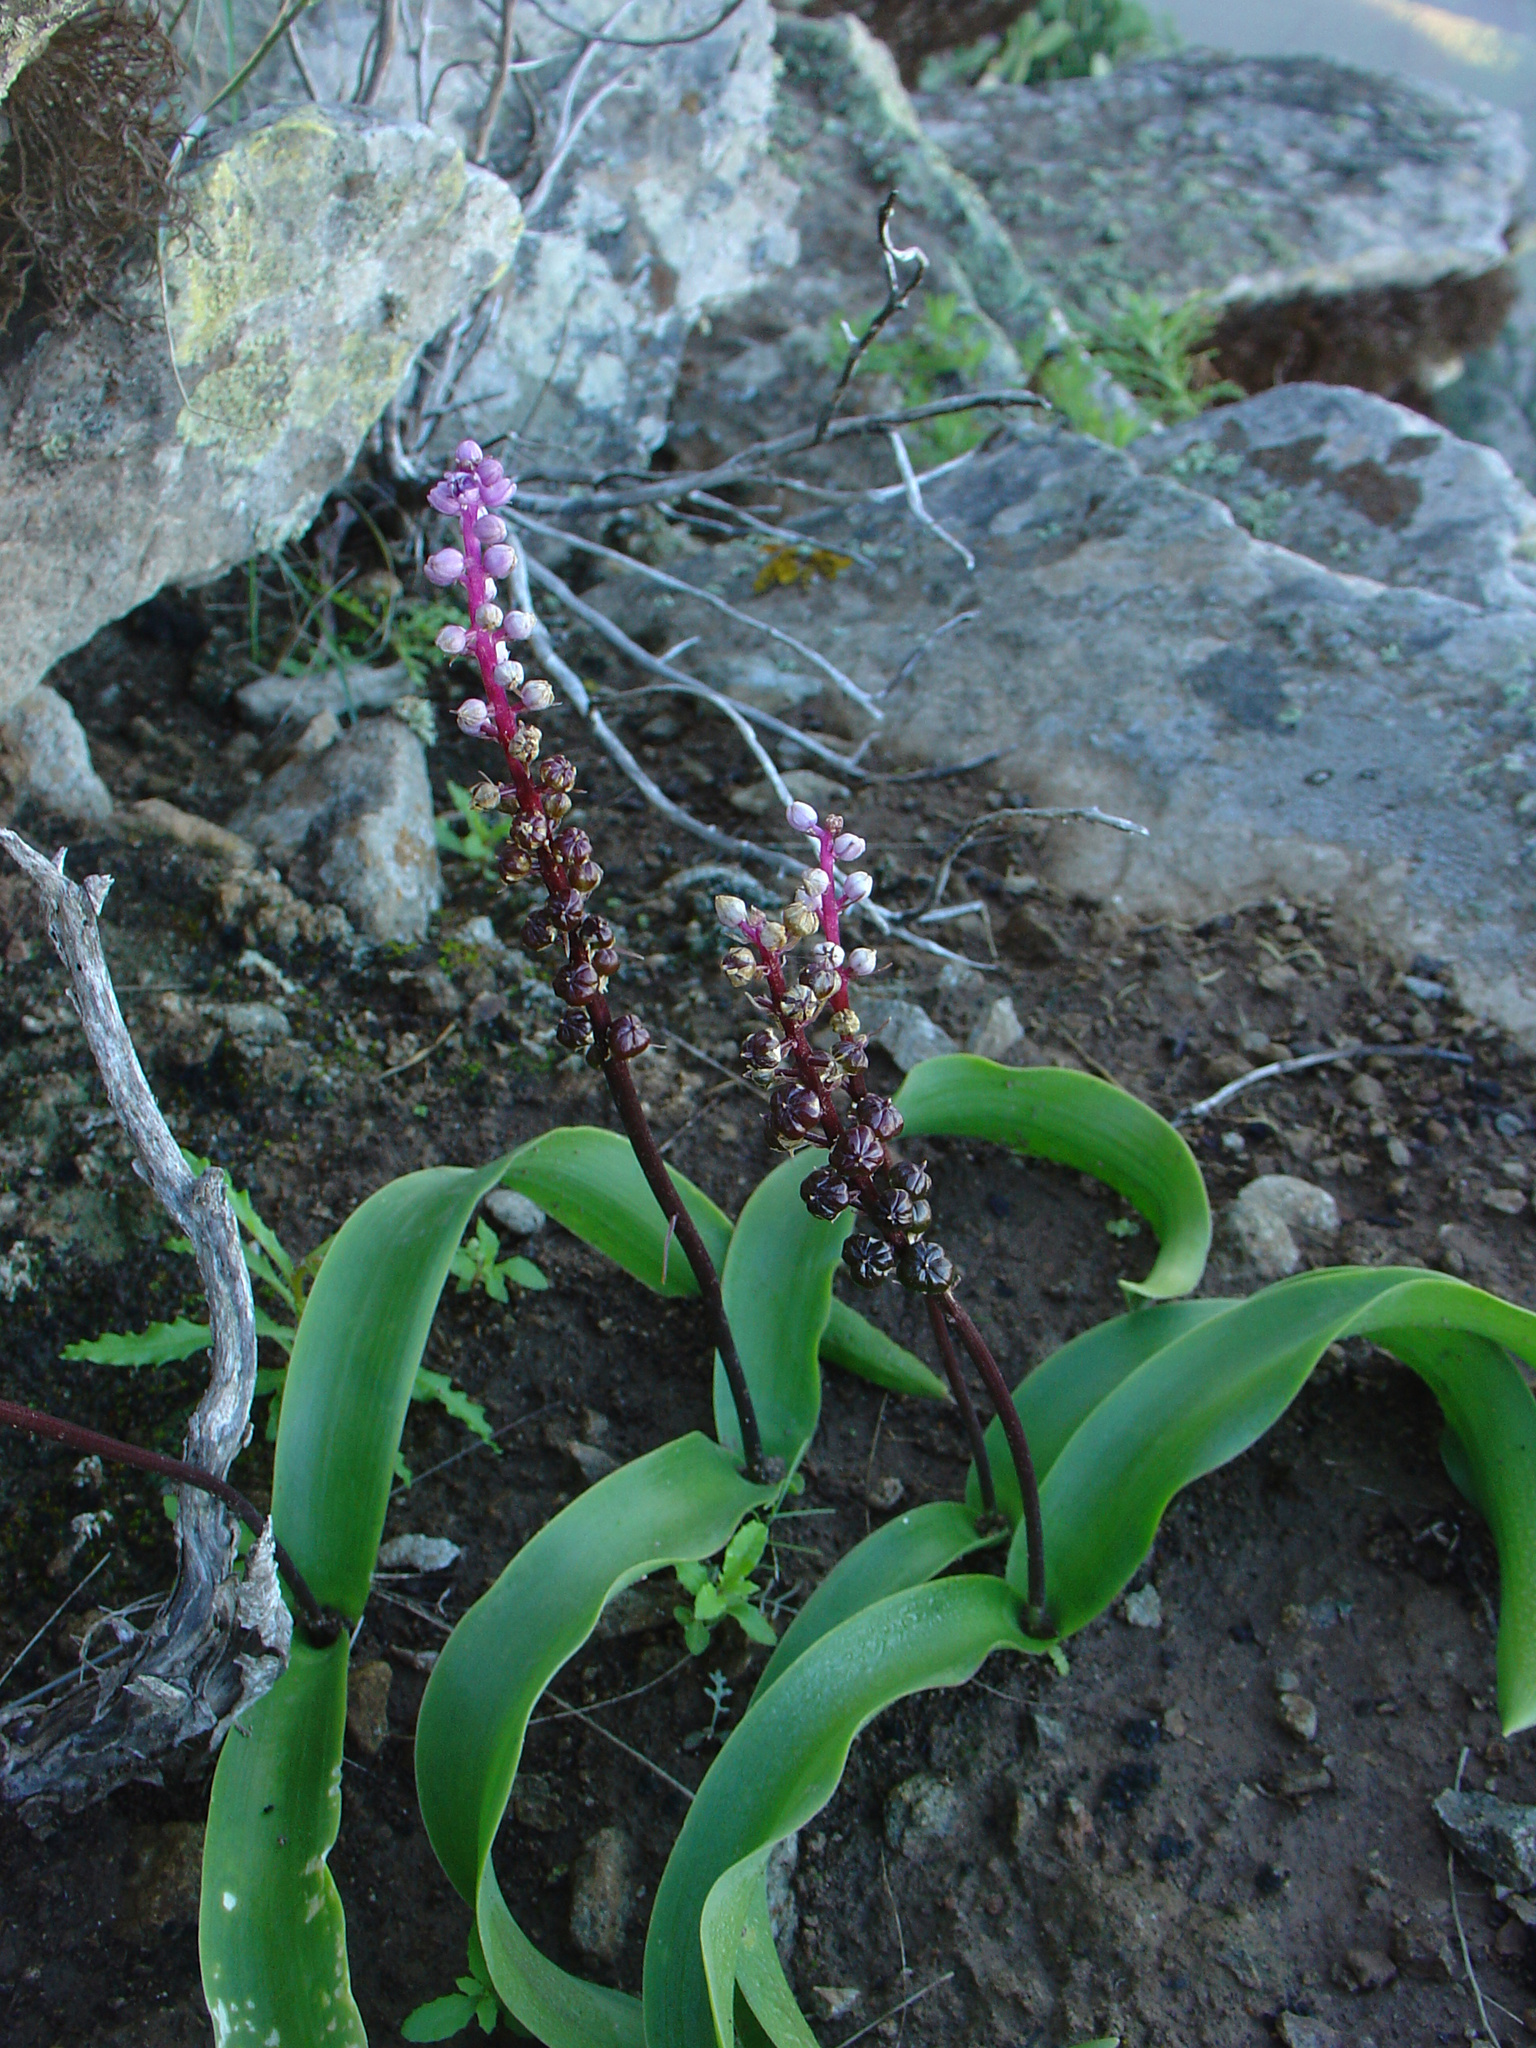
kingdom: Plantae
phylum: Tracheophyta
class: Liliopsida
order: Asparagales
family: Asparagaceae
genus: Scilla
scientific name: Scilla haemorrhoidalis
